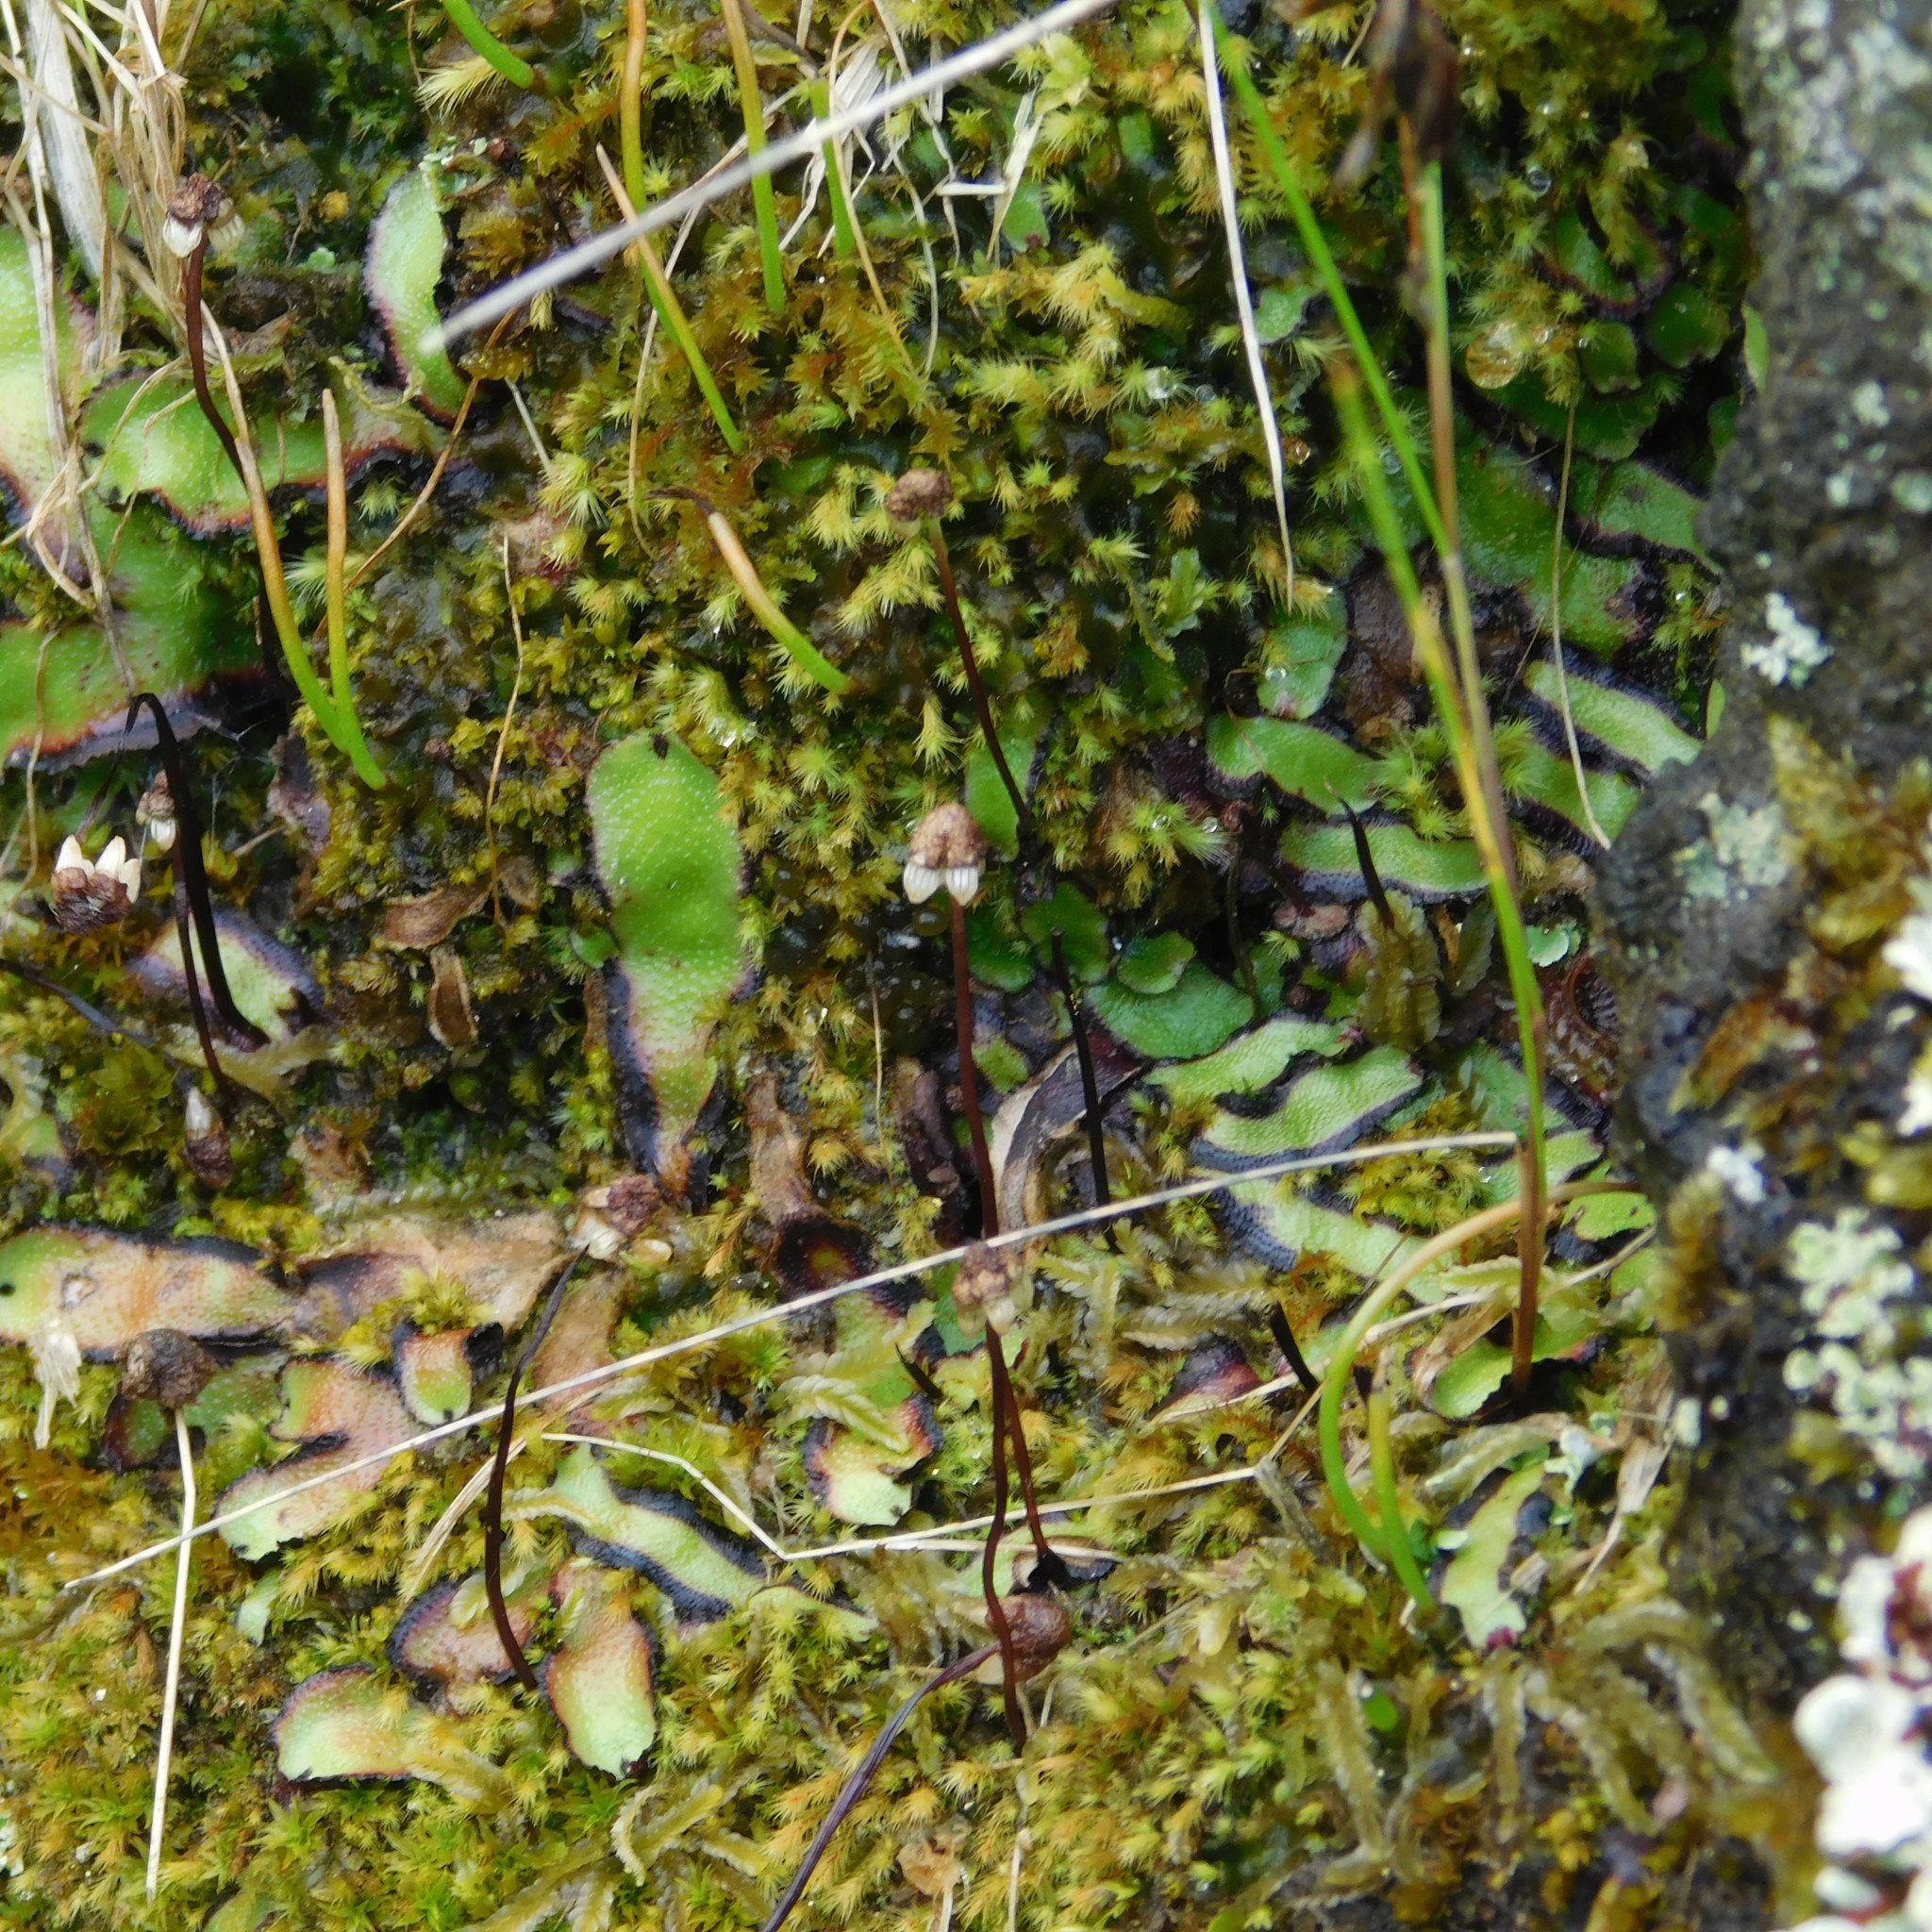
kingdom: Plantae
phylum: Marchantiophyta
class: Marchantiopsida
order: Marchantiales
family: Aytoniaceae
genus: Asterella
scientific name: Asterella australis
